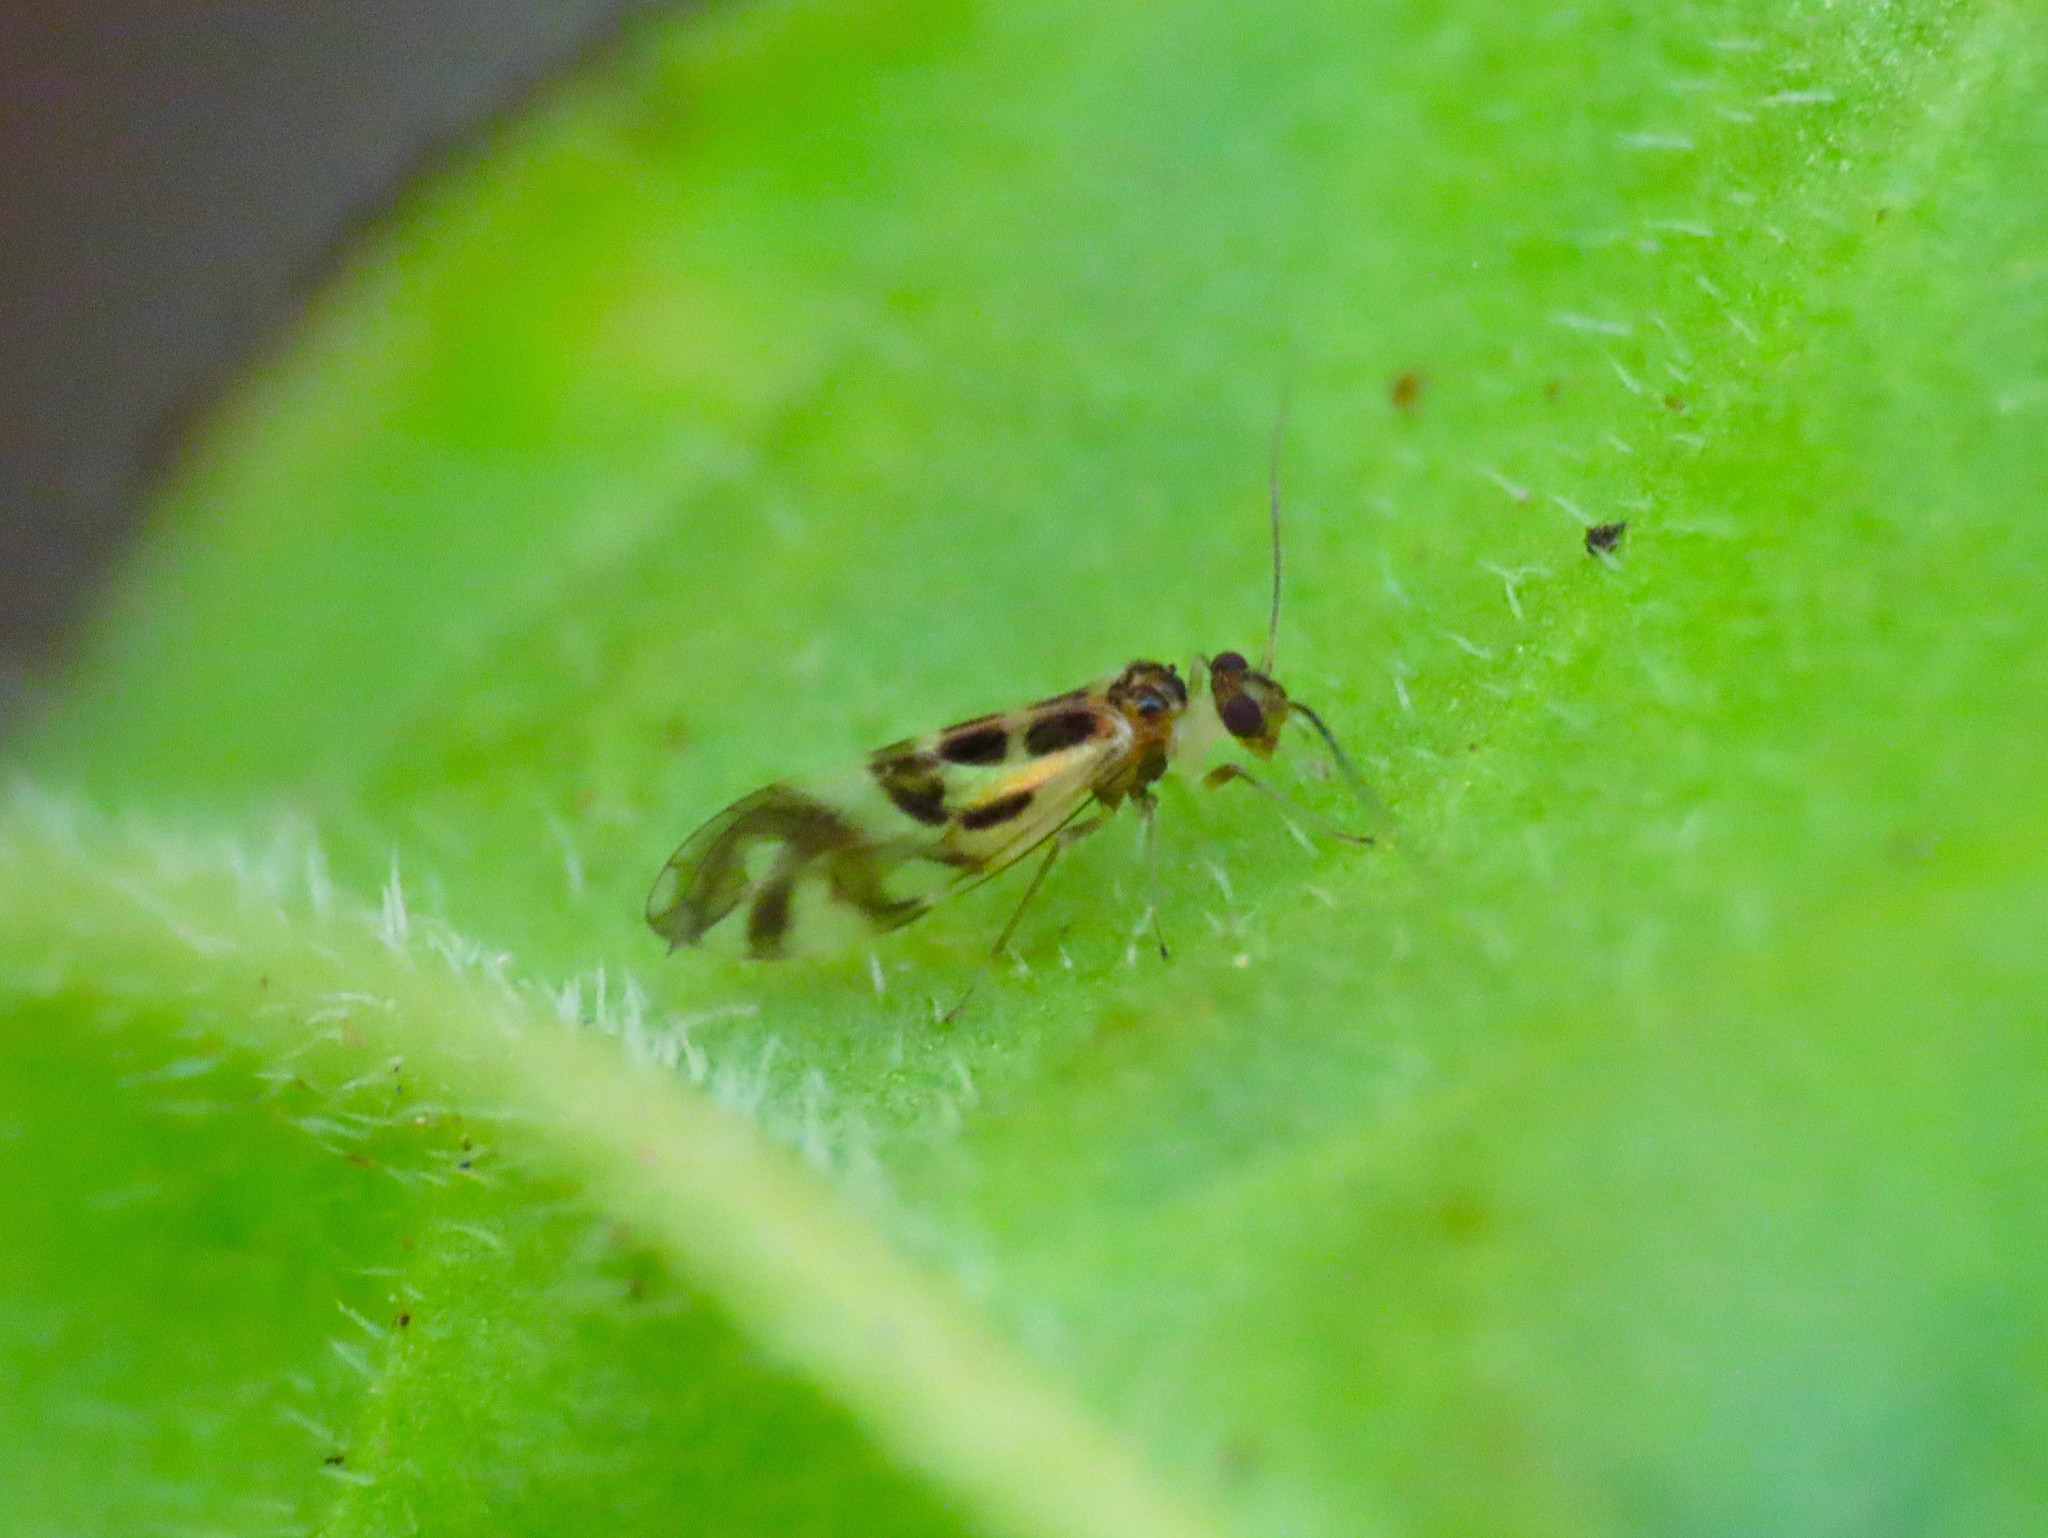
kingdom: Animalia
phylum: Arthropoda
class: Insecta
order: Psocodea
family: Stenopsocidae
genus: Graphopsocus
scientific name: Graphopsocus cruciatus
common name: Lizard bark louse
